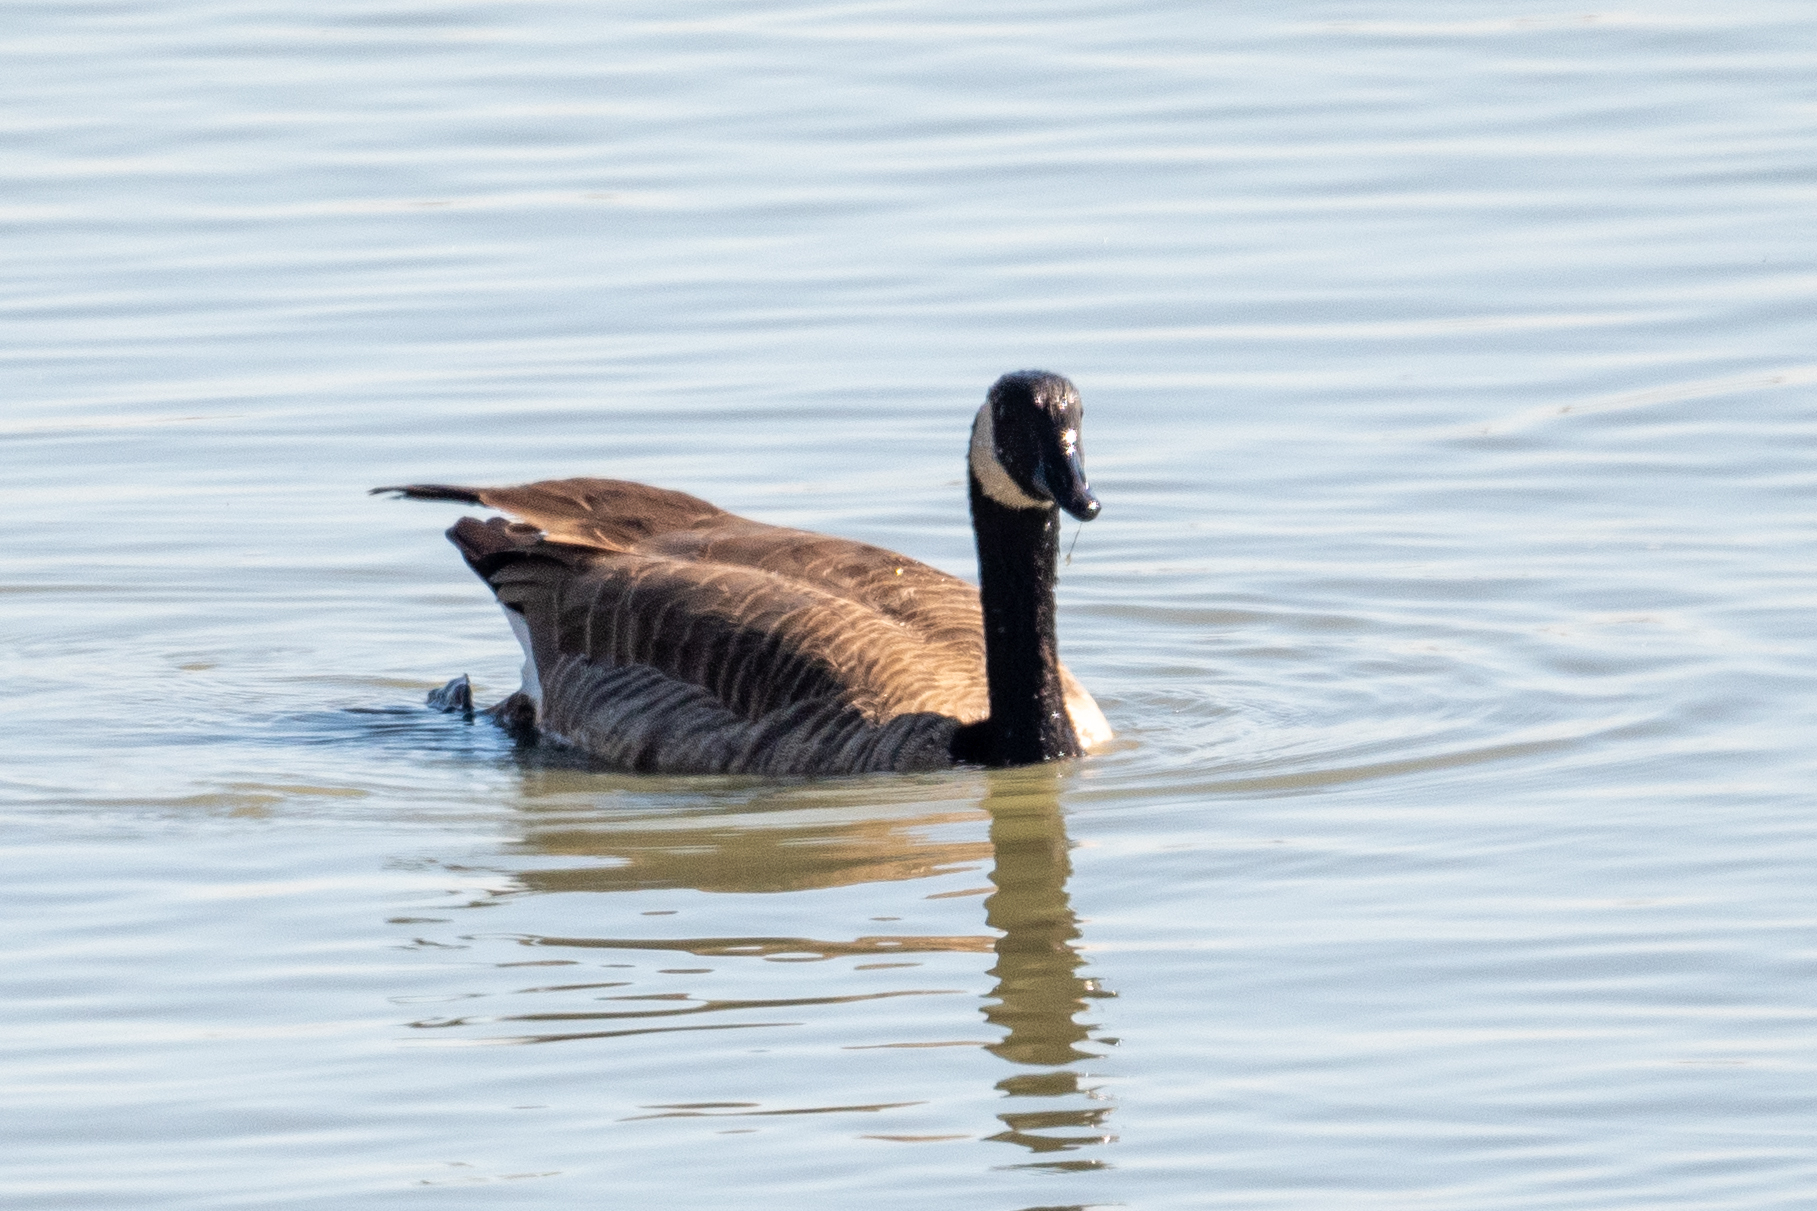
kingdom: Animalia
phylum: Chordata
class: Aves
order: Anseriformes
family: Anatidae
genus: Branta
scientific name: Branta canadensis
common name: Canada goose
